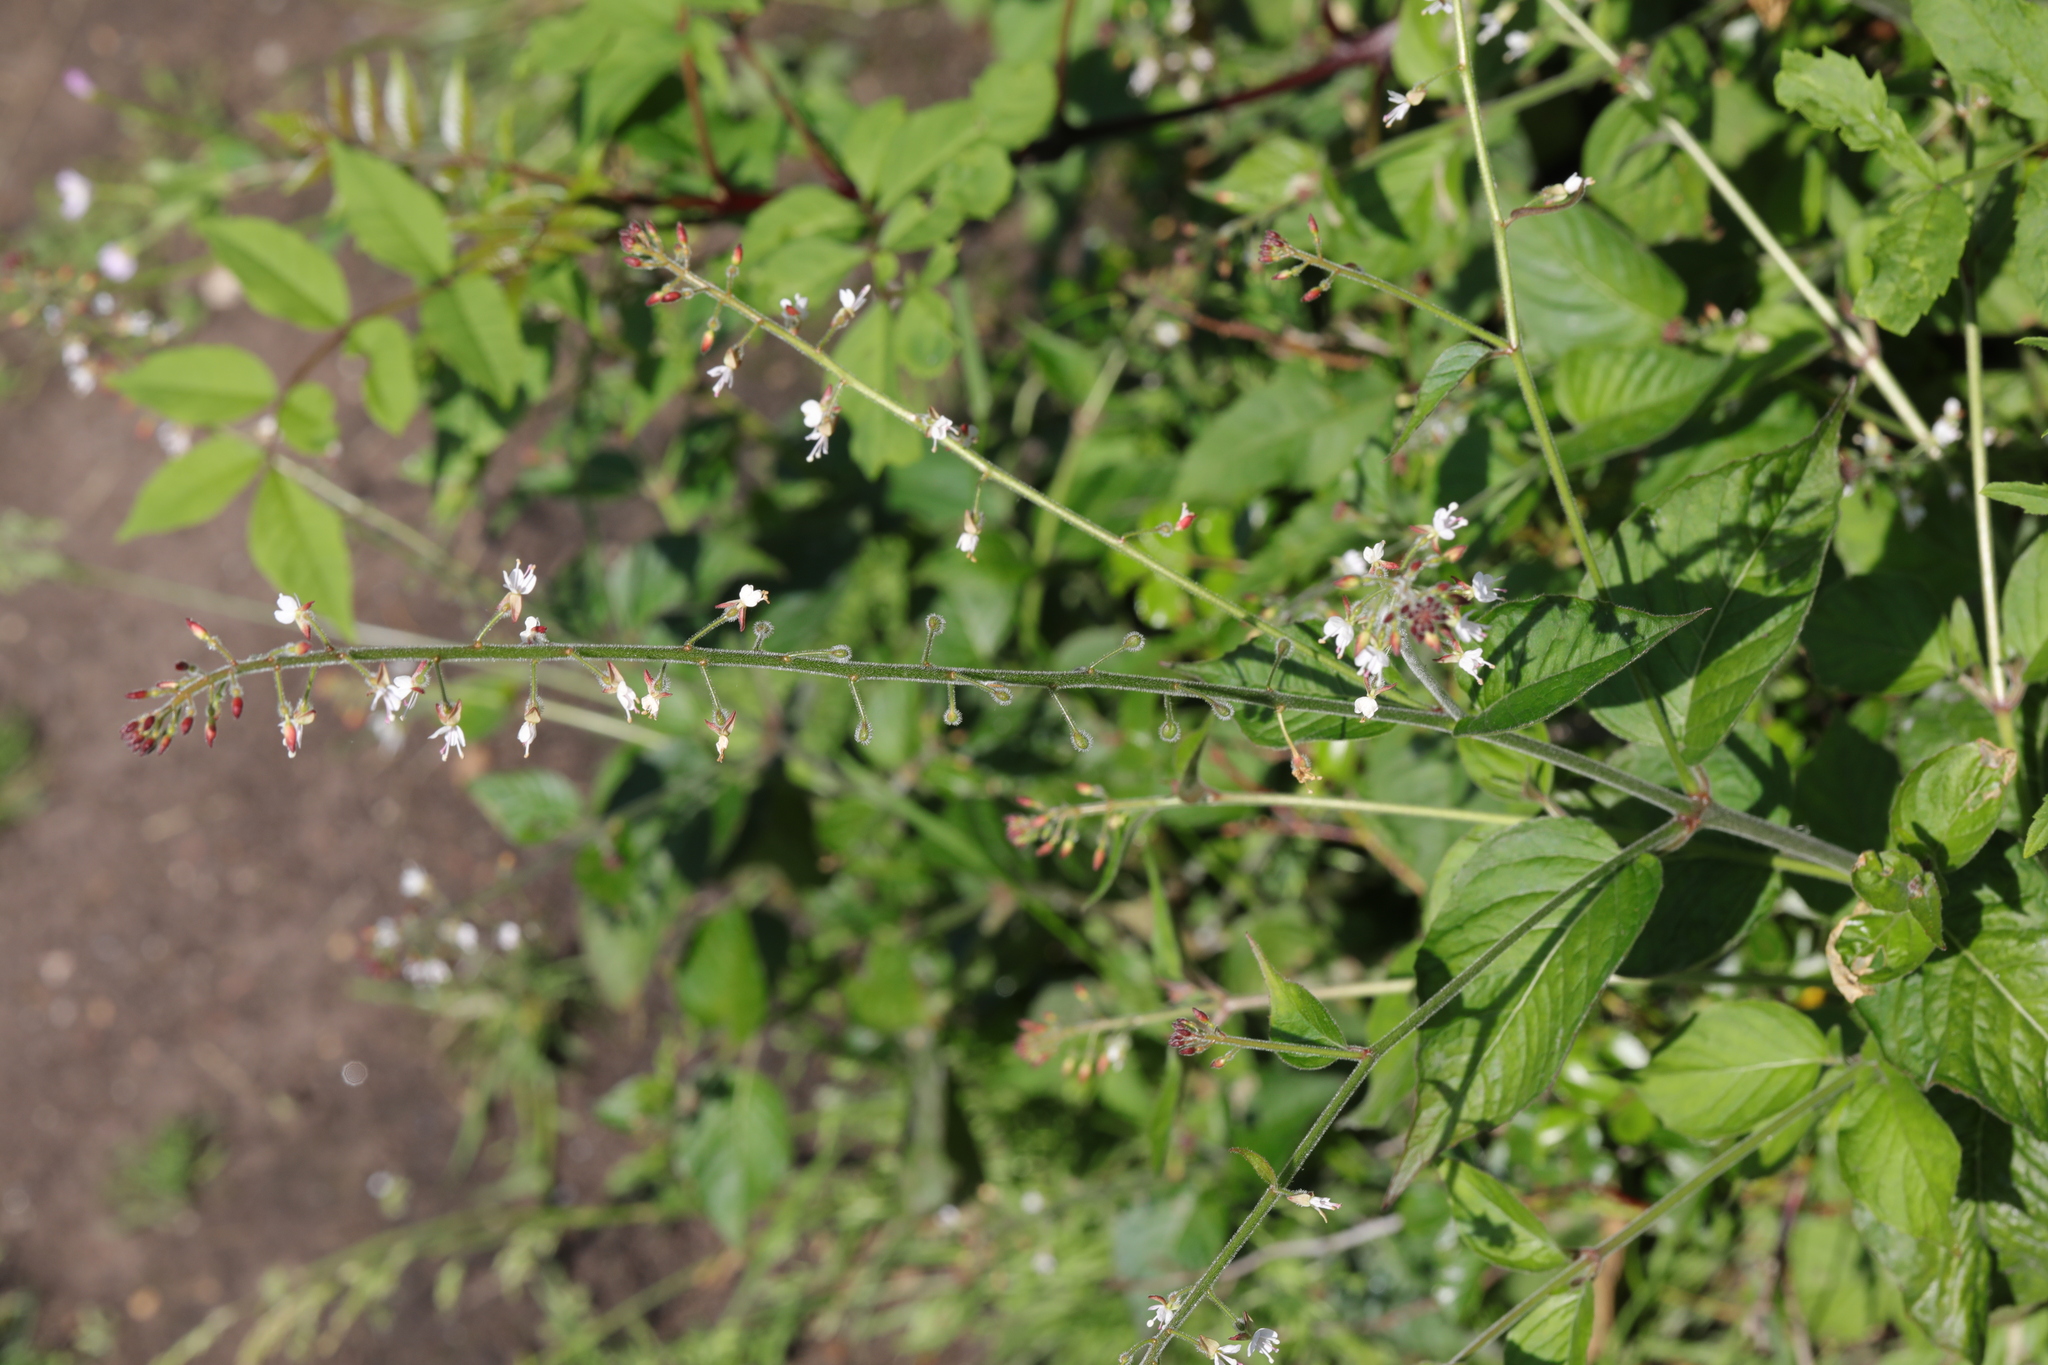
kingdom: Plantae
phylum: Tracheophyta
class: Magnoliopsida
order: Myrtales
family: Onagraceae
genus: Circaea
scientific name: Circaea lutetiana
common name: Enchanter's-nightshade
